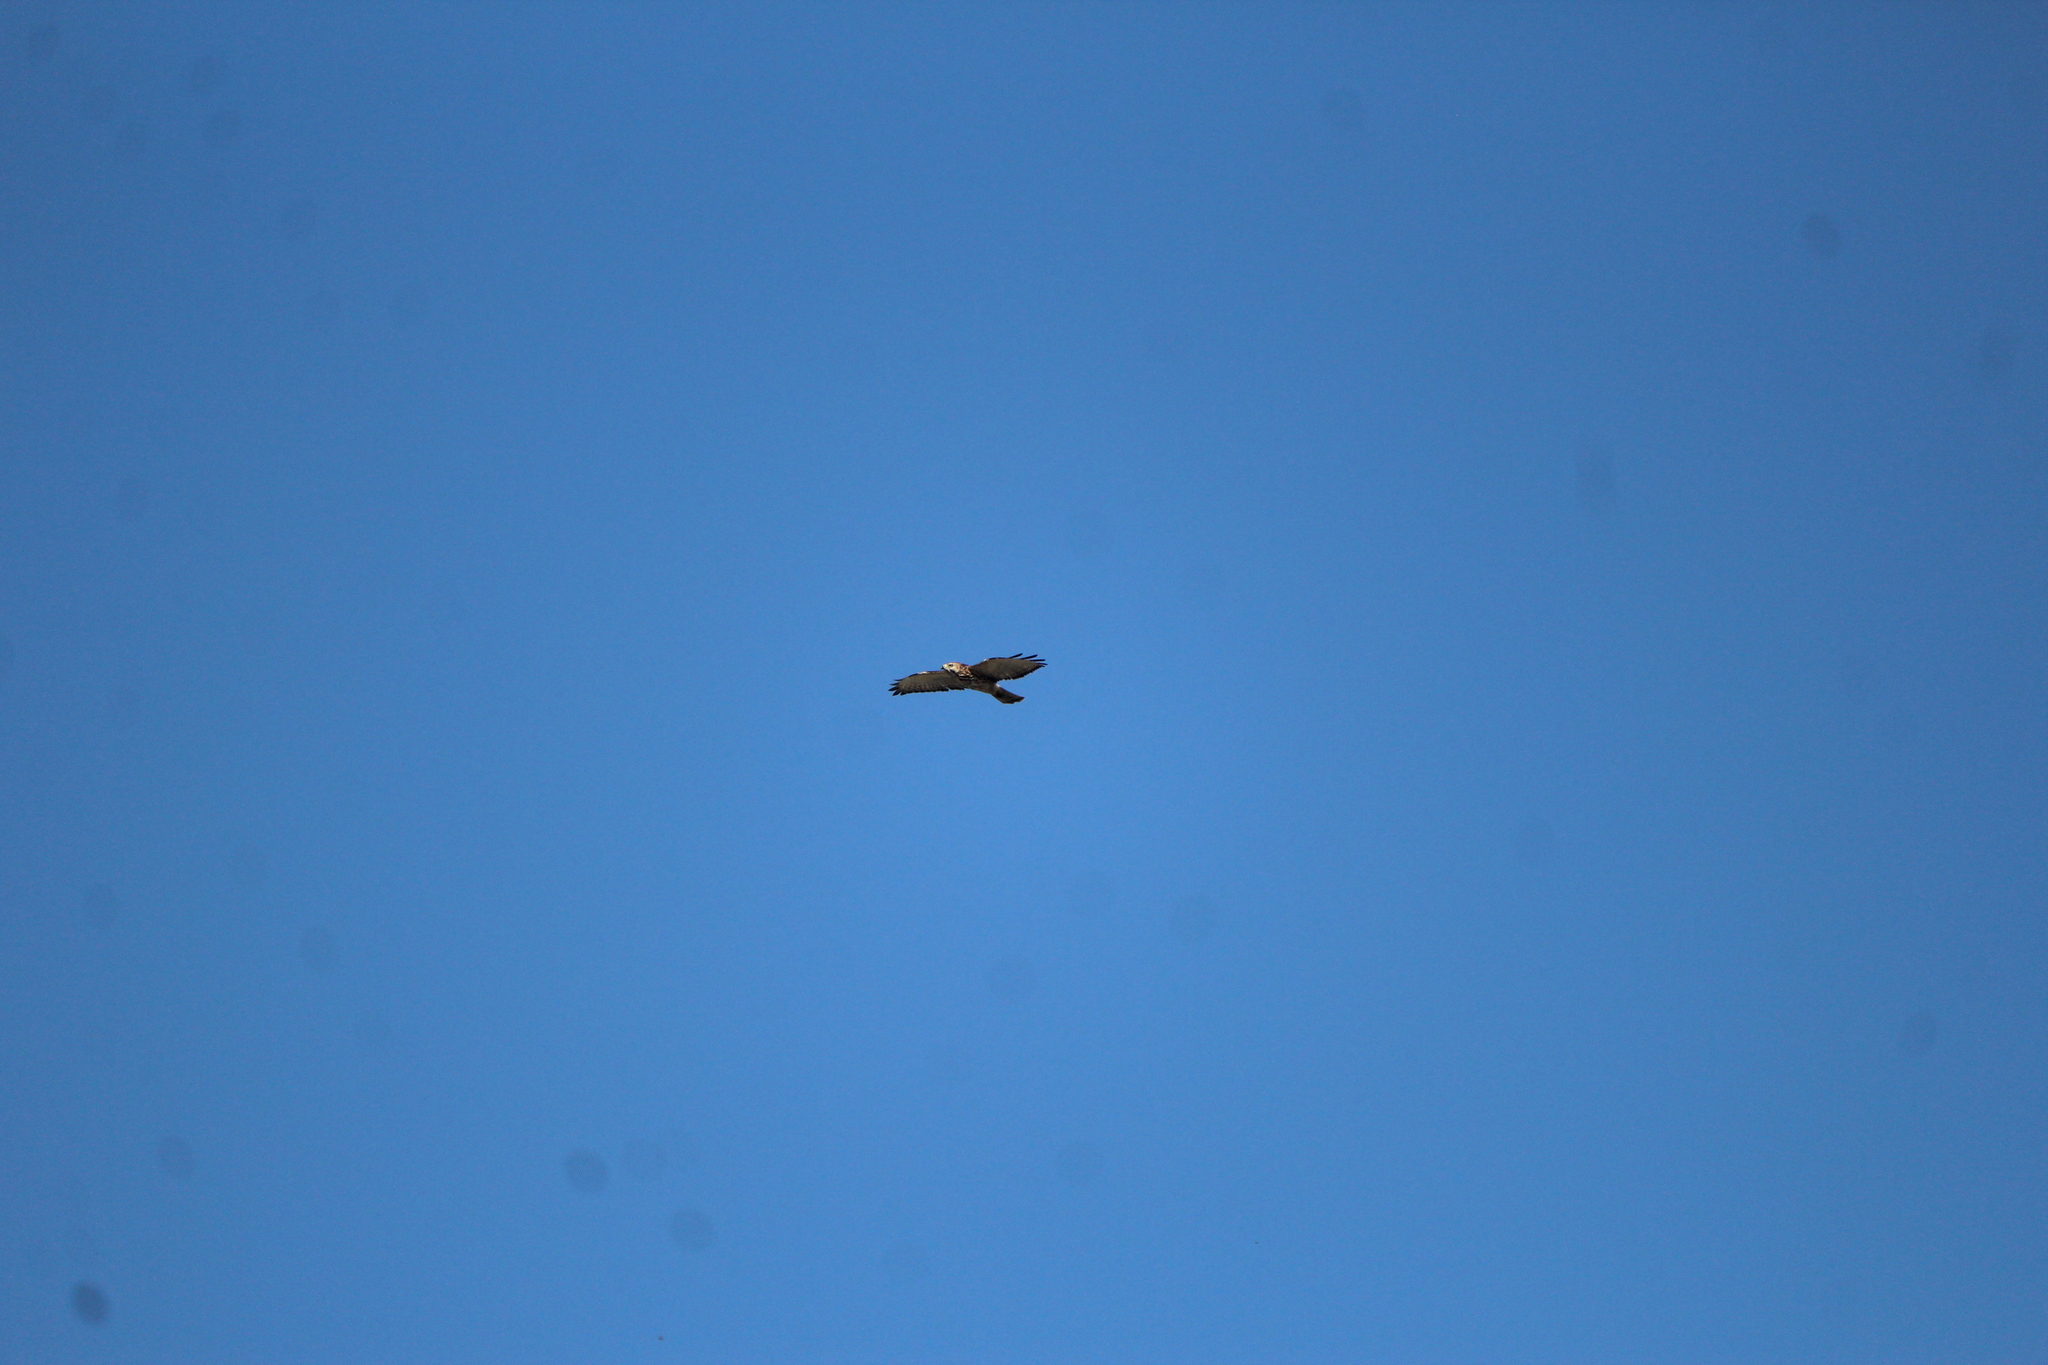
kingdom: Animalia
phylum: Chordata
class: Aves
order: Accipitriformes
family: Accipitridae
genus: Buteo
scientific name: Buteo platypterus
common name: Broad-winged hawk
